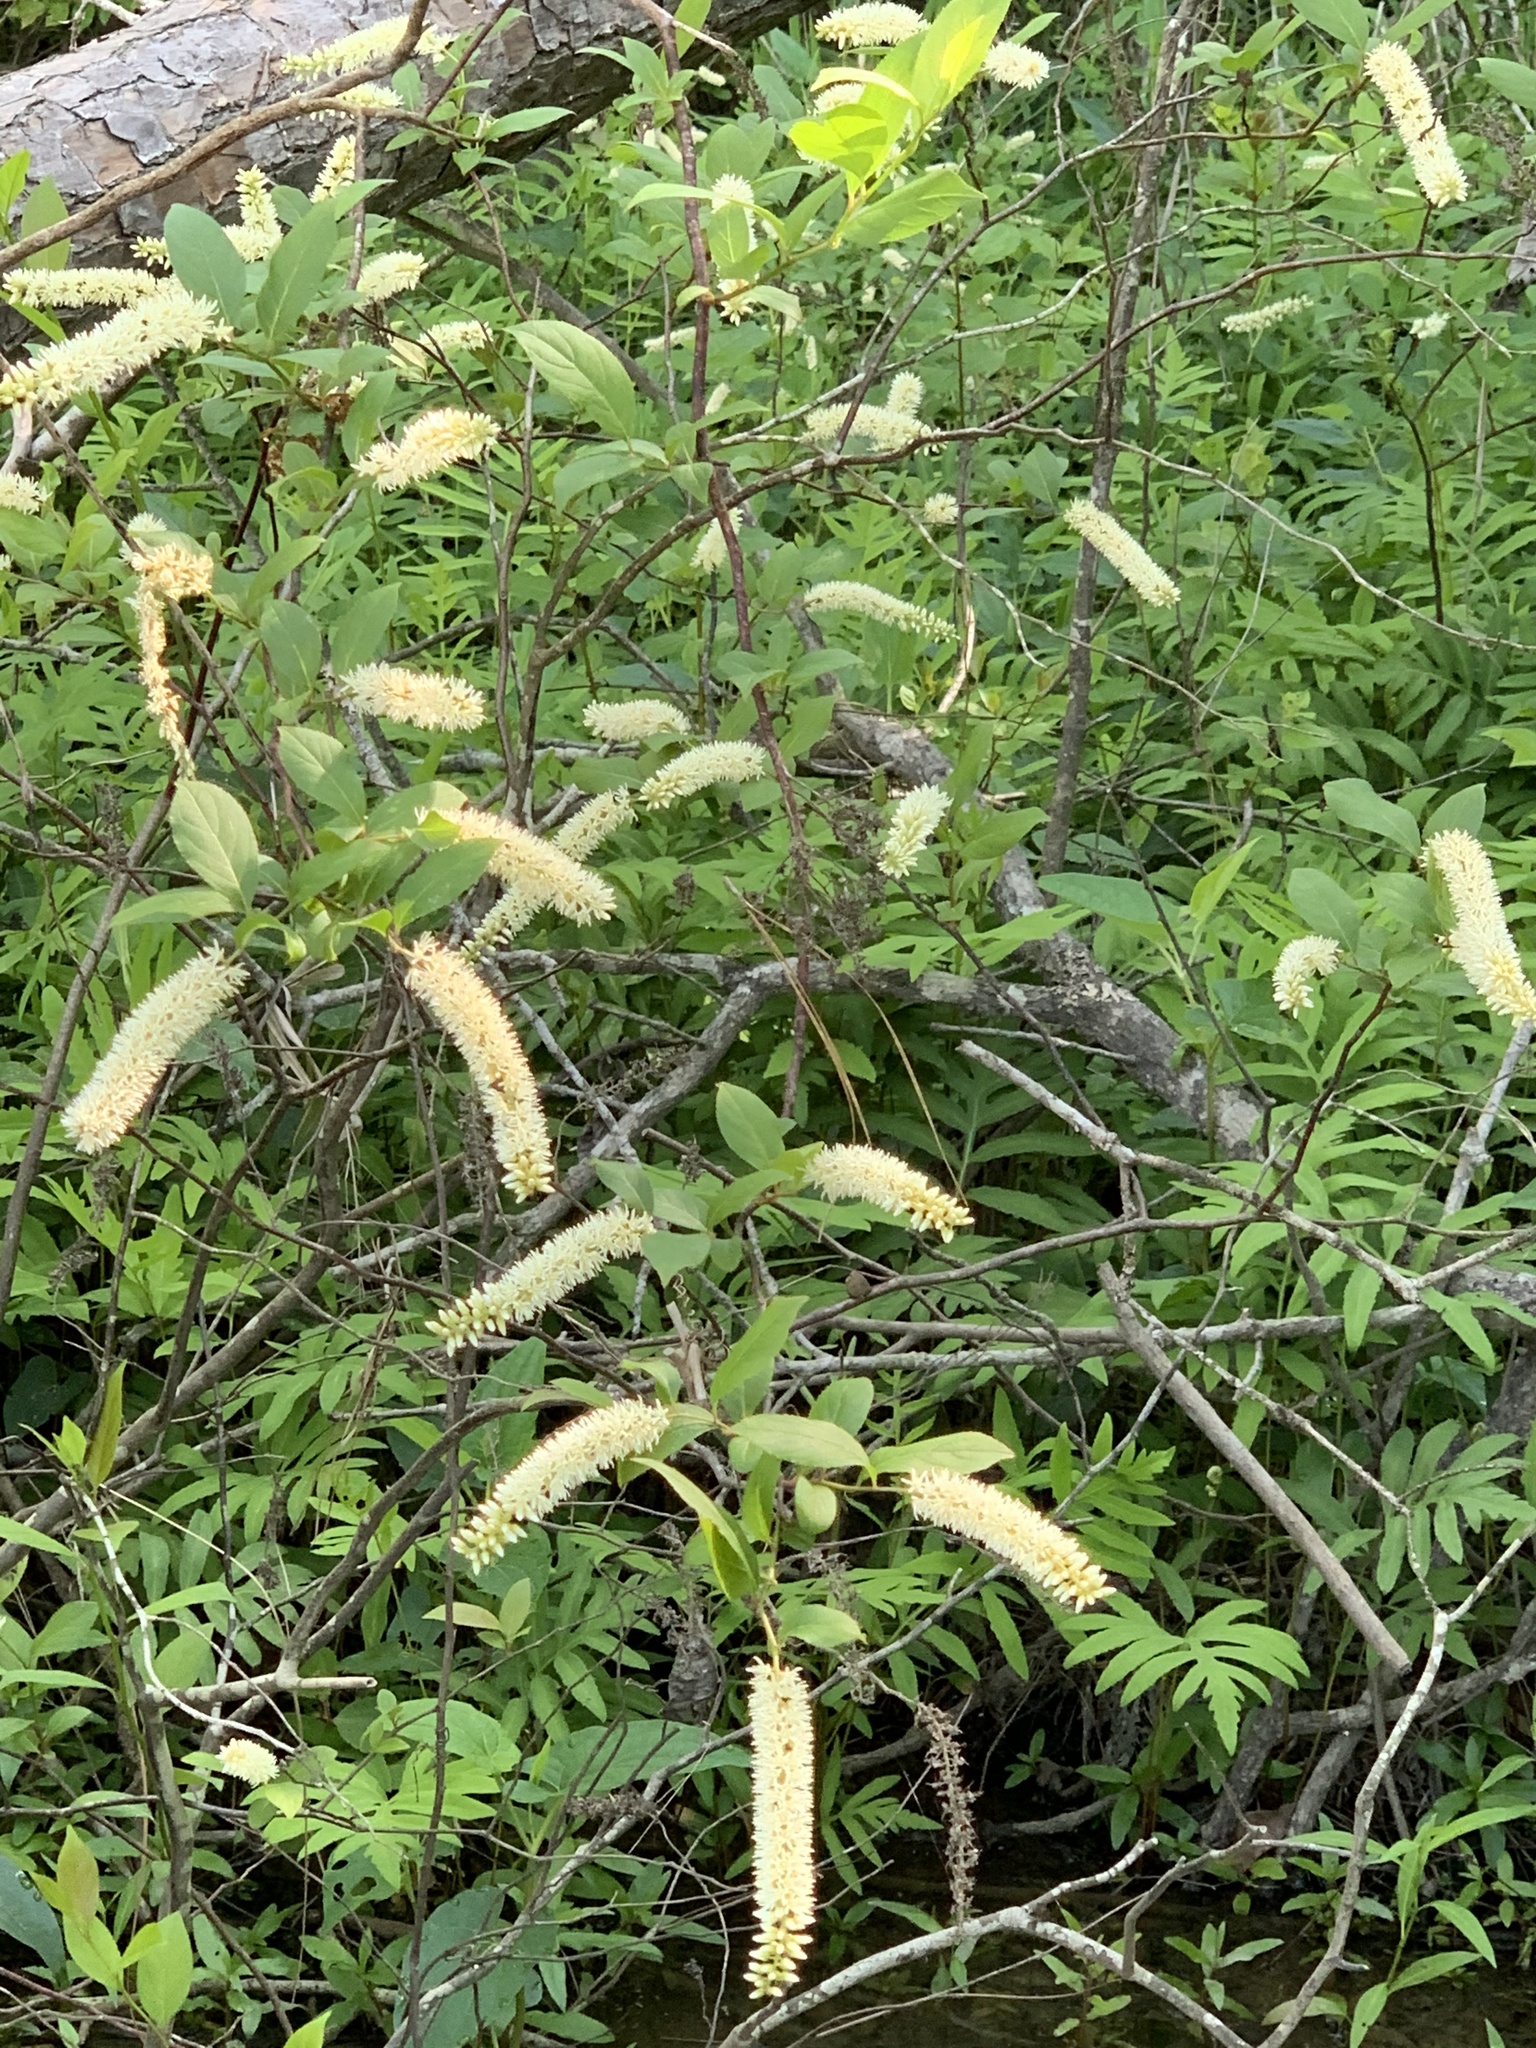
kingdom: Plantae
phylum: Tracheophyta
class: Magnoliopsida
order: Saxifragales
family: Iteaceae
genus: Itea
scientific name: Itea virginica
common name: Sweetspire
